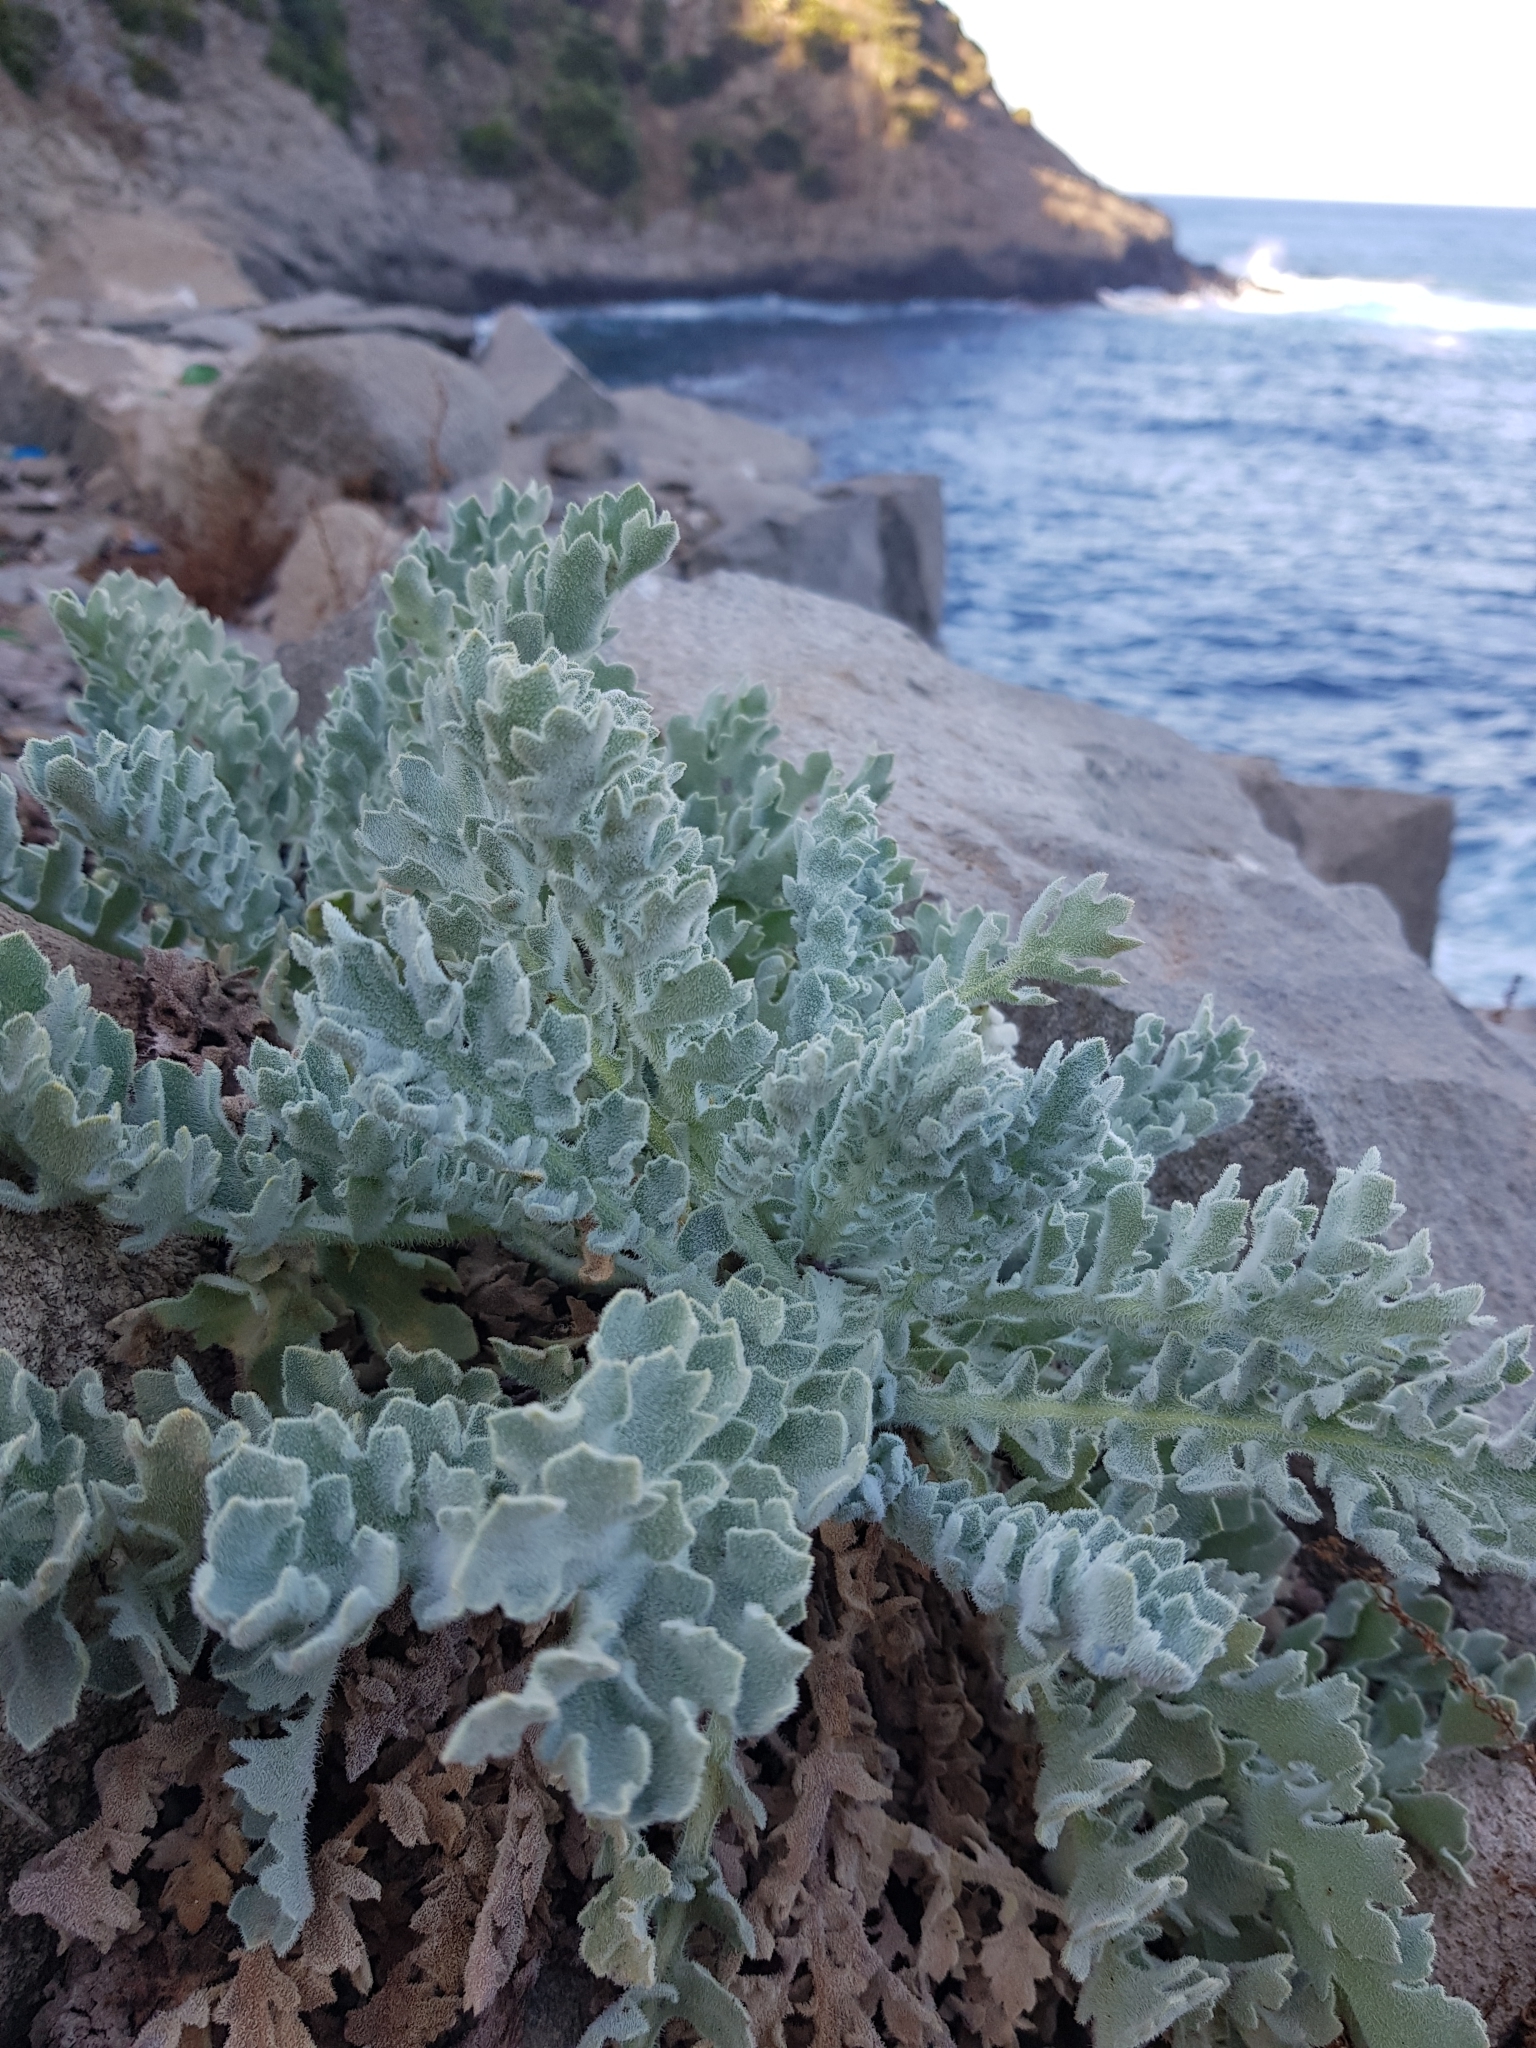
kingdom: Plantae
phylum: Tracheophyta
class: Magnoliopsida
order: Ranunculales
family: Papaveraceae
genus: Glaucium
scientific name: Glaucium flavum
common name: Yellow horned-poppy
